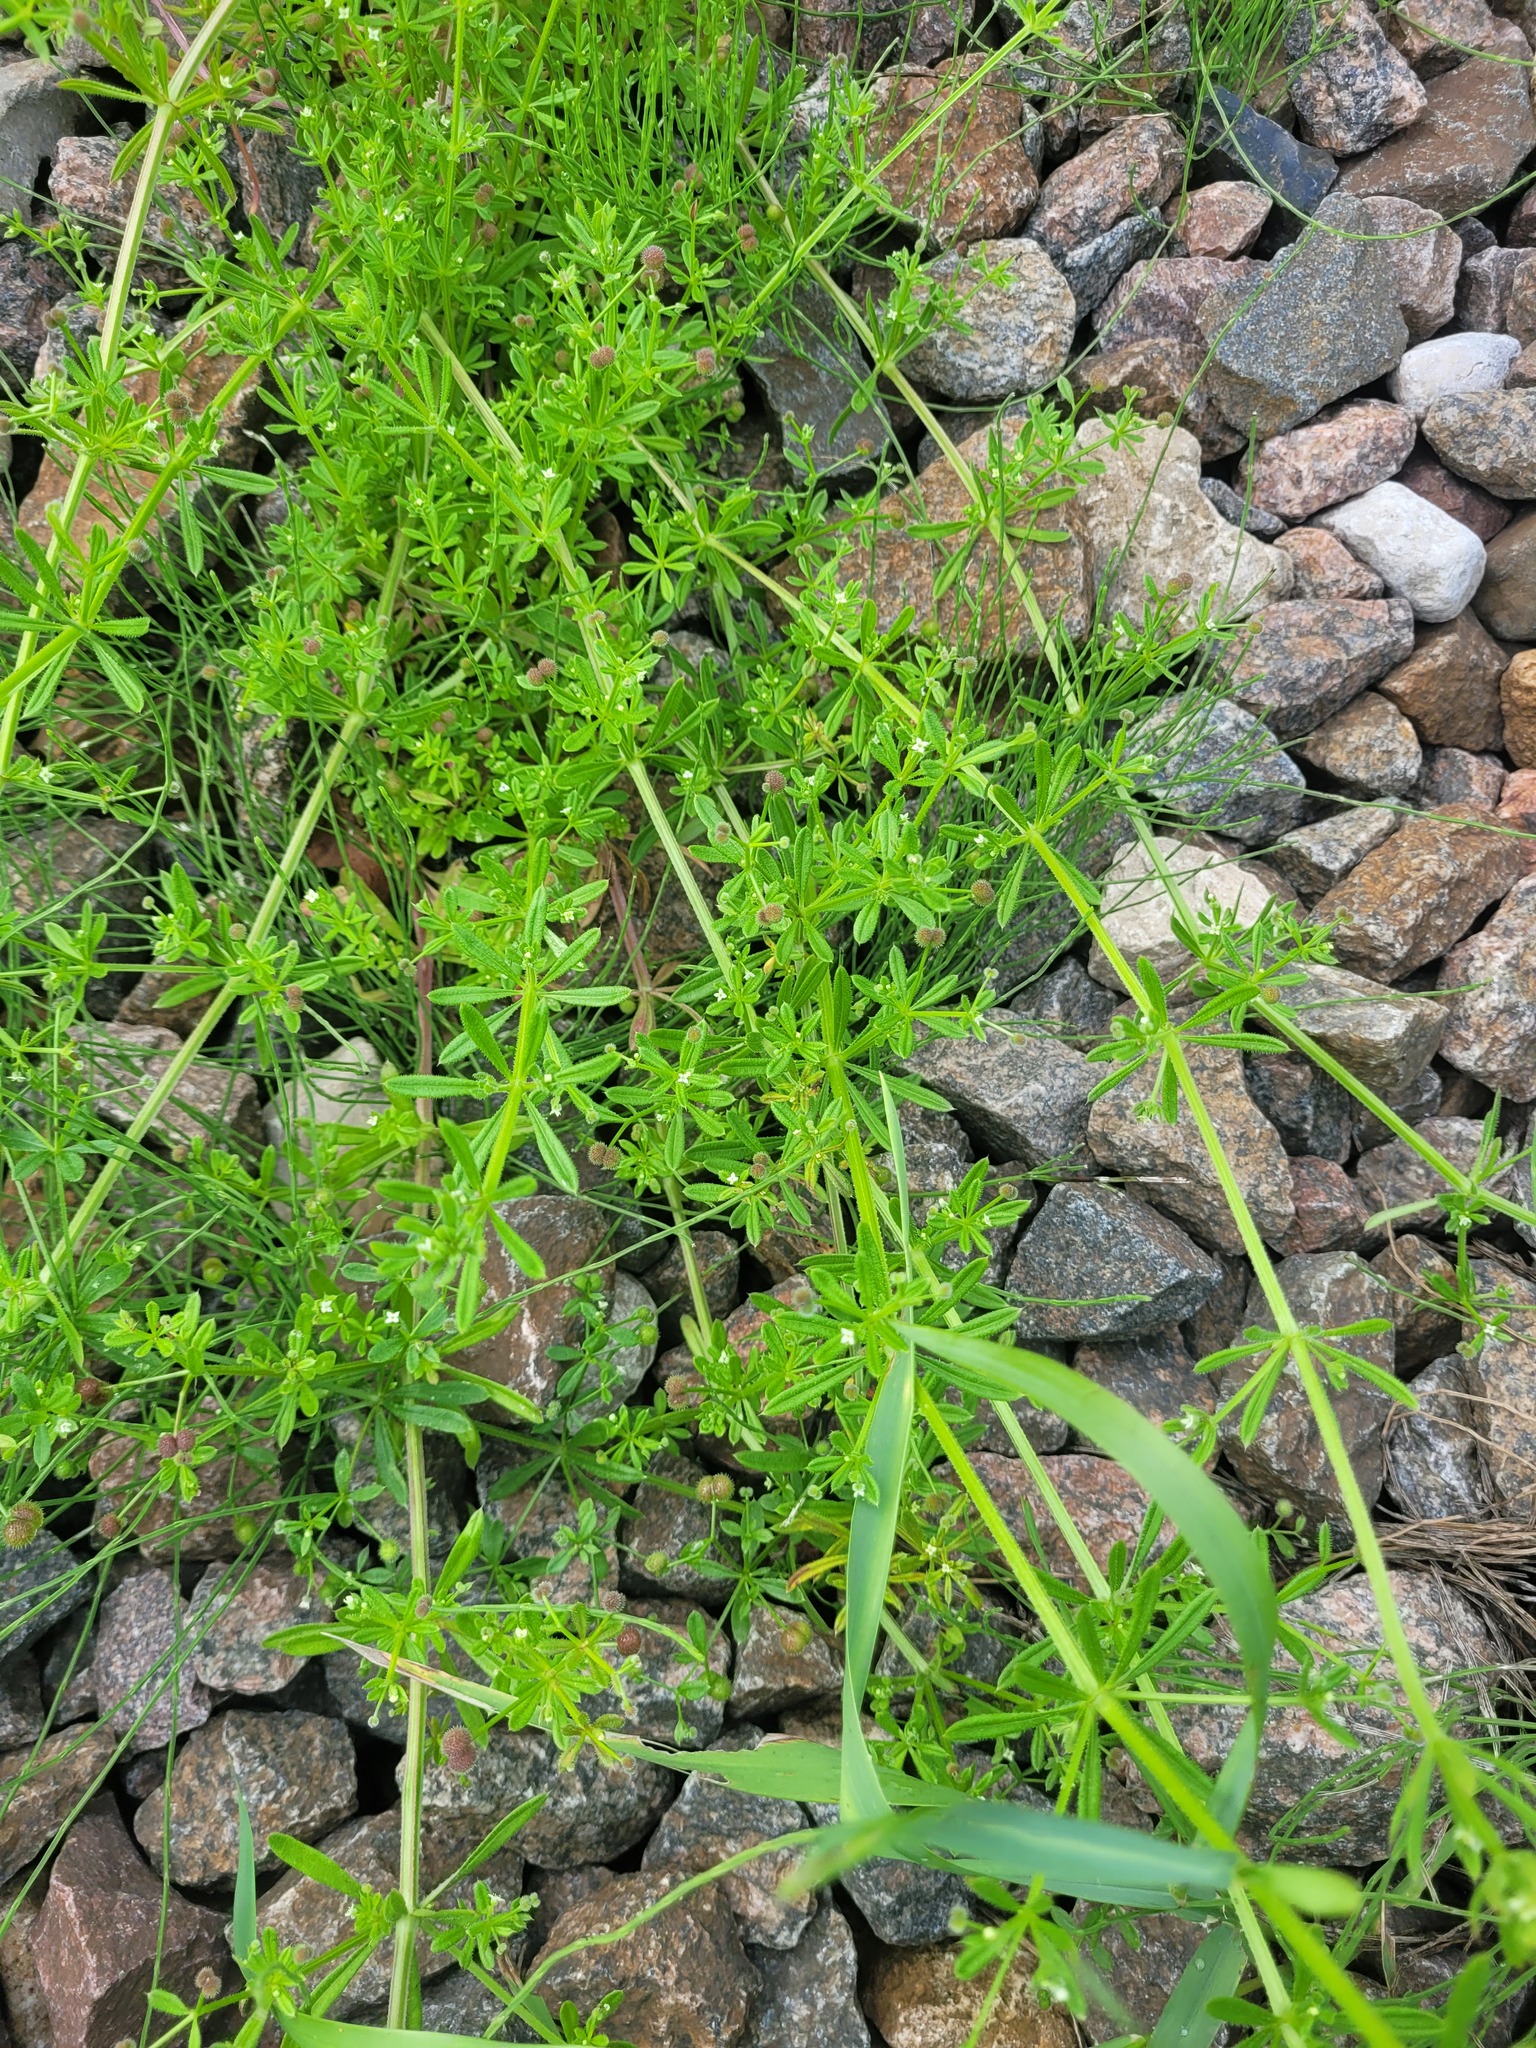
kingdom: Plantae
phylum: Tracheophyta
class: Magnoliopsida
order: Gentianales
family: Rubiaceae
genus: Galium
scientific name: Galium aparine
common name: Cleavers
